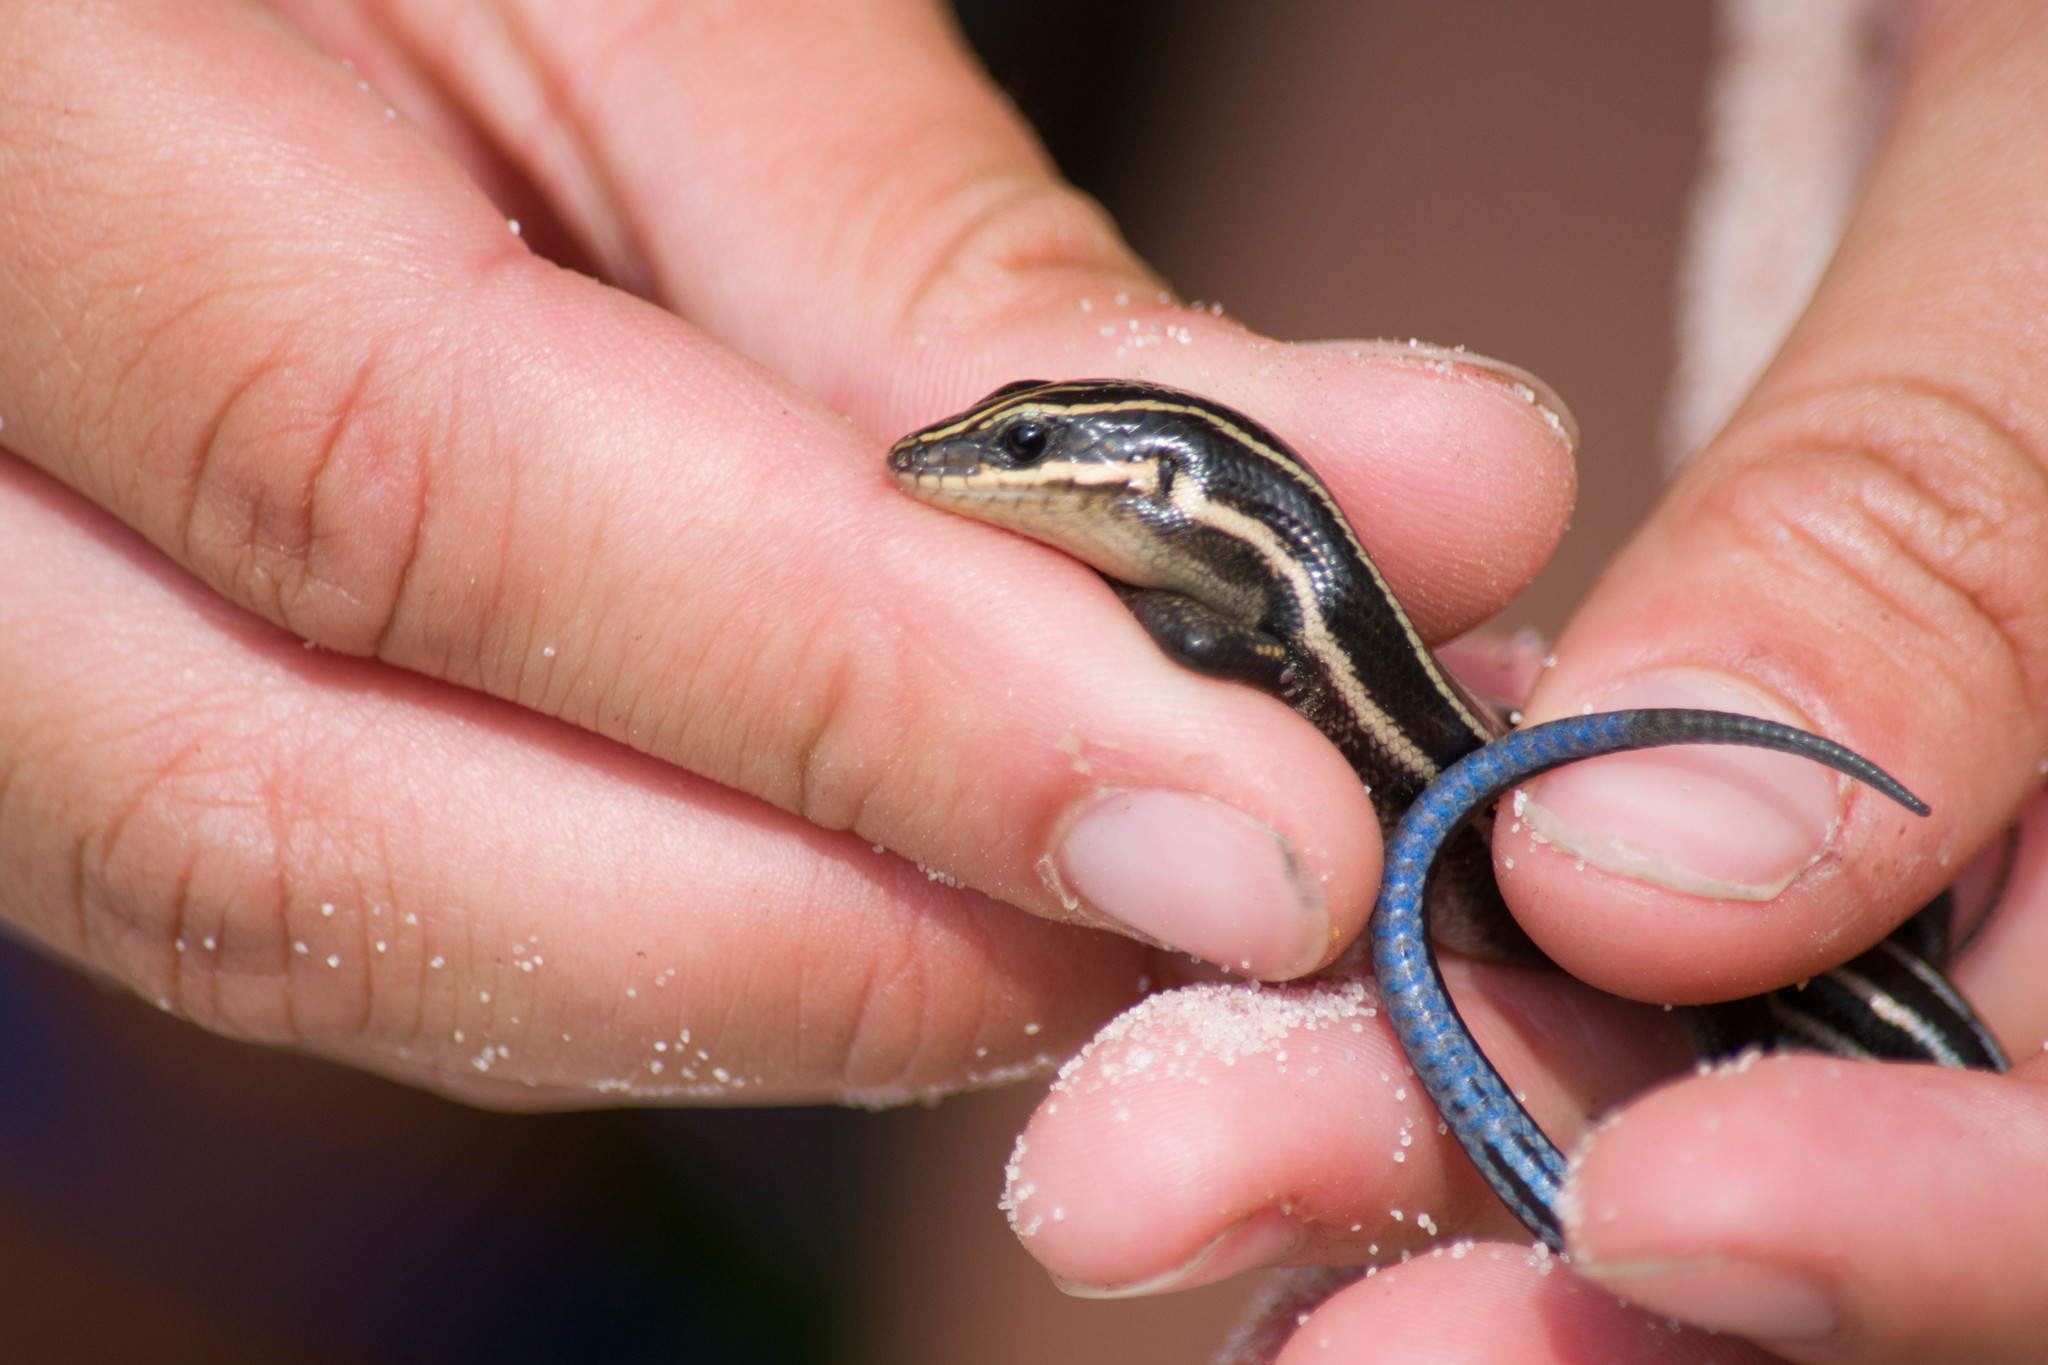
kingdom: Animalia
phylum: Chordata
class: Squamata
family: Scincidae
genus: Plestiodon
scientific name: Plestiodon fasciatus
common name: Five-lined skink
